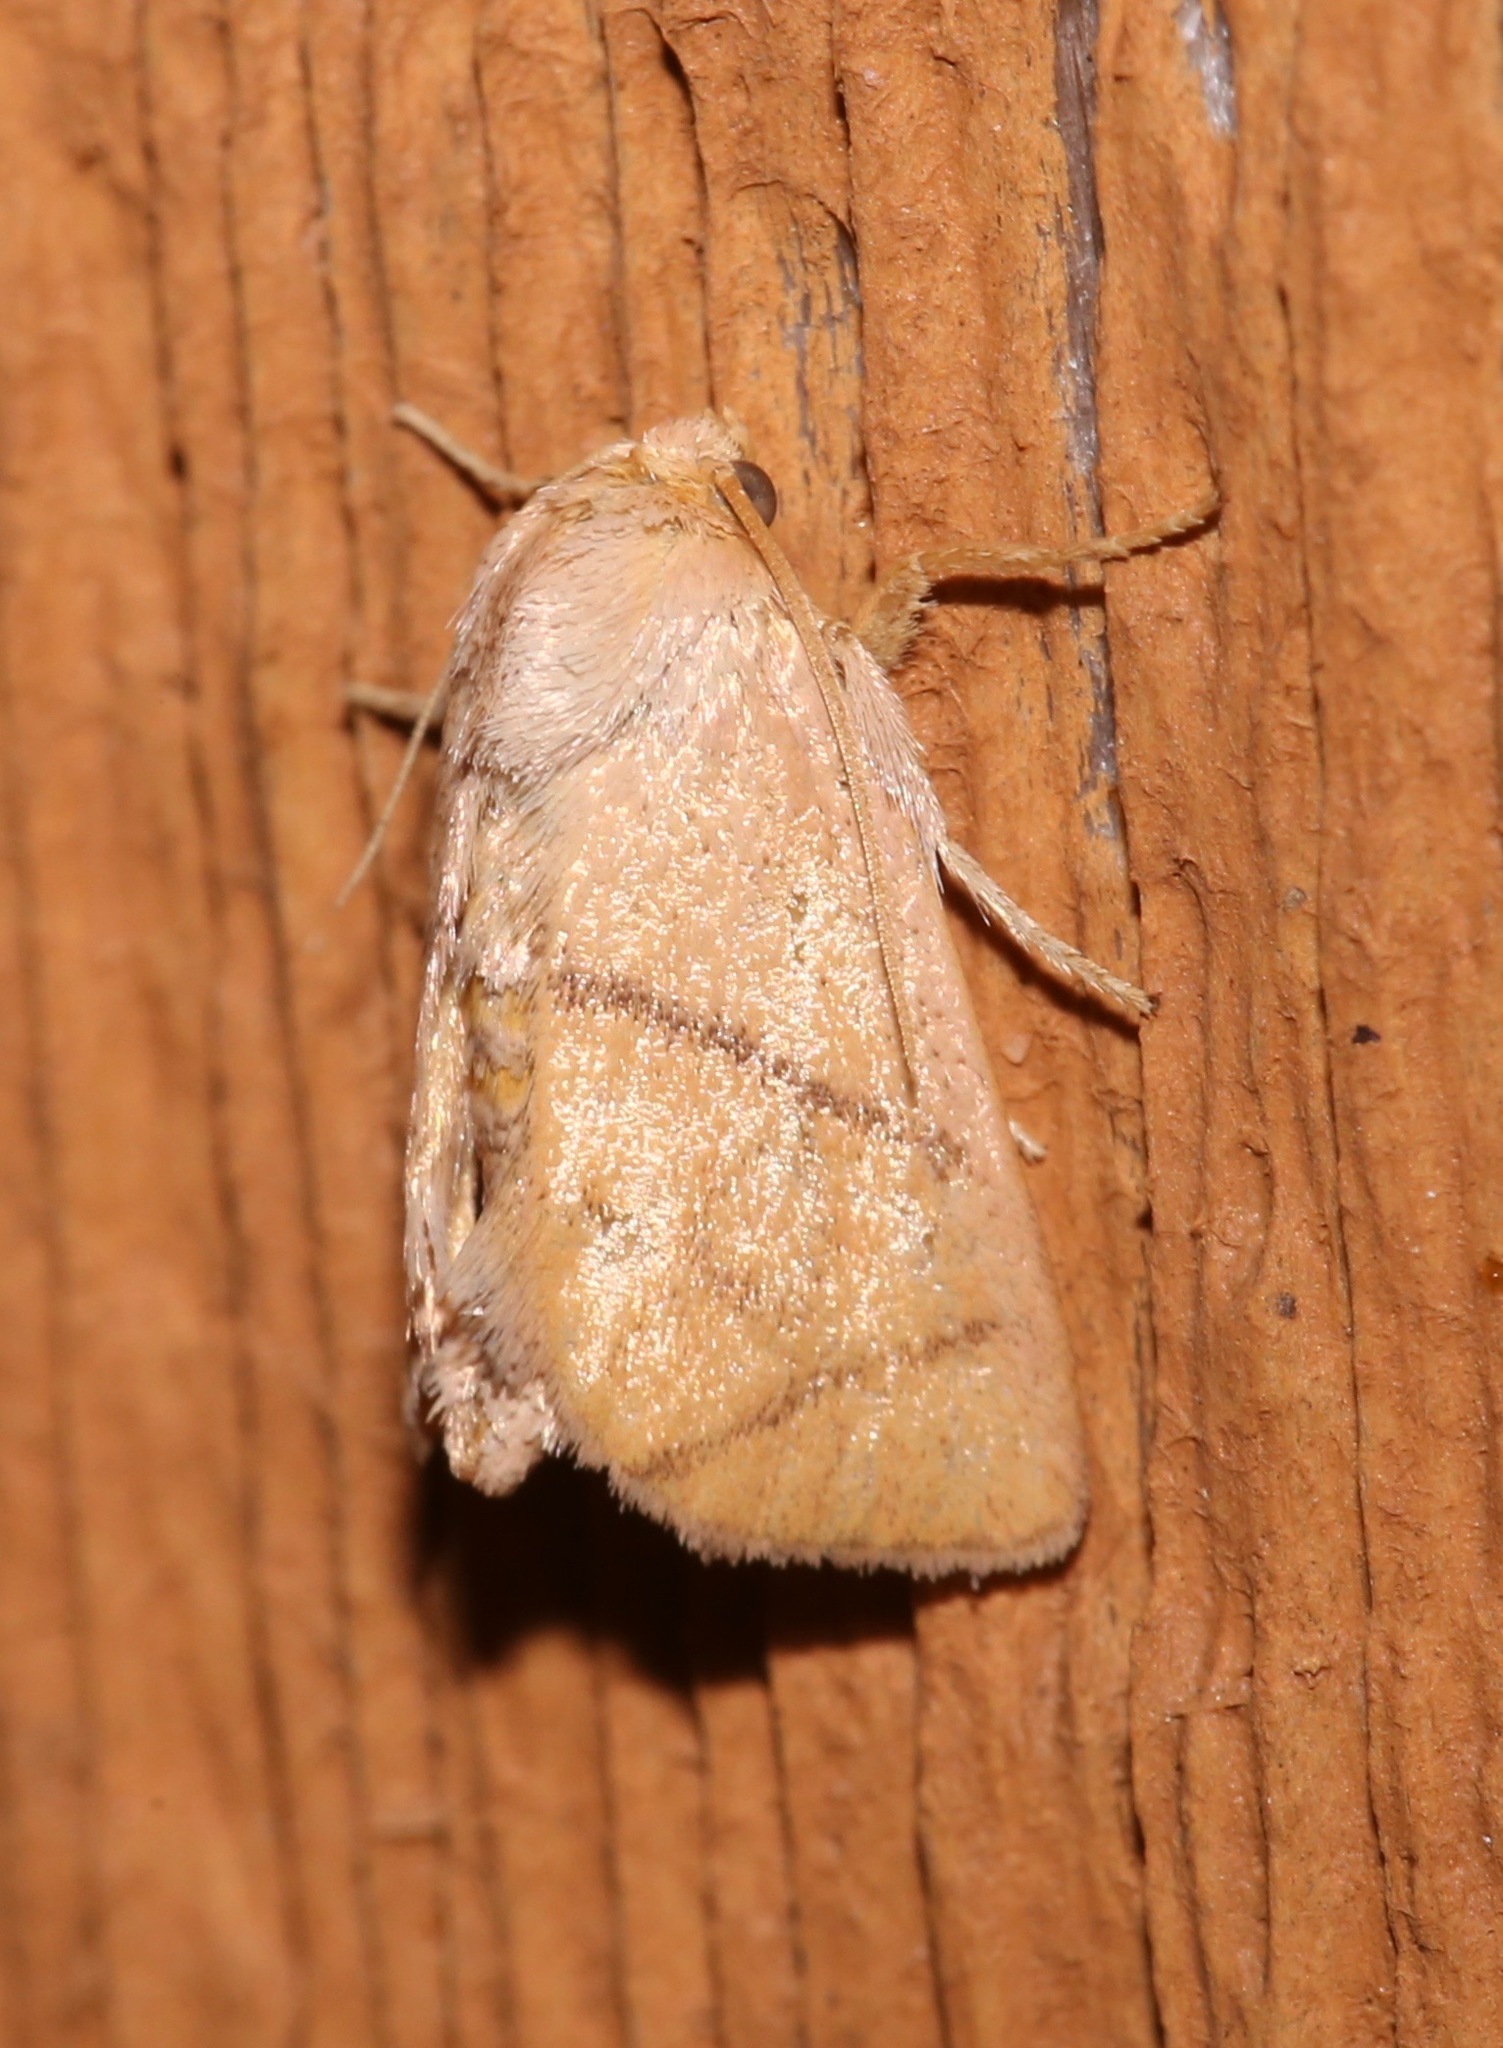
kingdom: Animalia
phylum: Arthropoda
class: Insecta
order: Lepidoptera
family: Limacodidae
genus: Apoda
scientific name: Apoda y-inversa
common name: Yellow-collared slug moth
